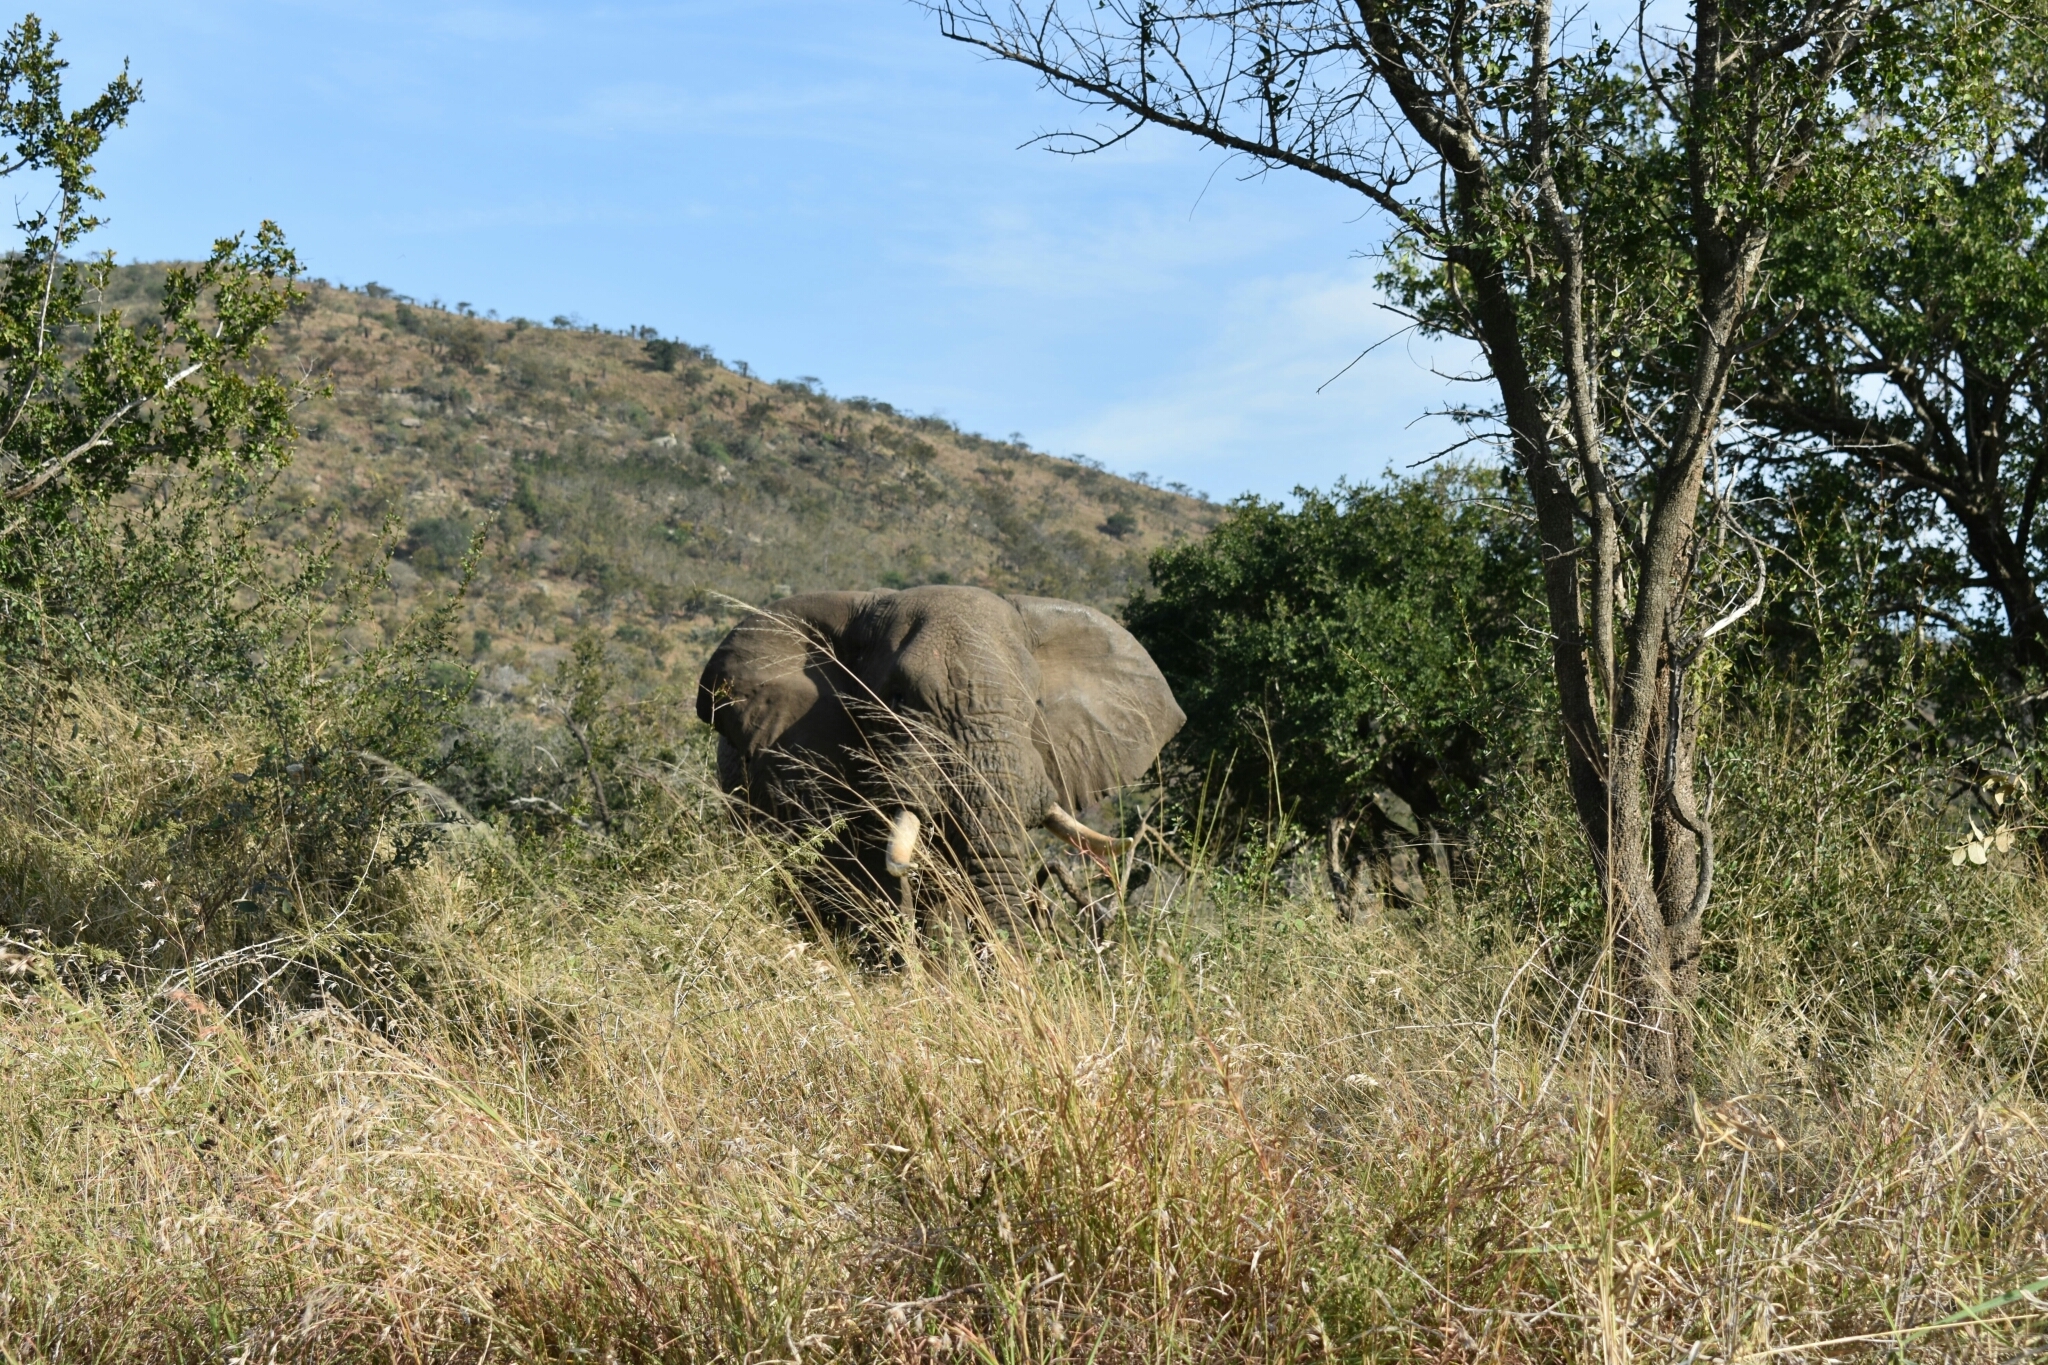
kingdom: Animalia
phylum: Chordata
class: Mammalia
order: Proboscidea
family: Elephantidae
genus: Loxodonta
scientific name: Loxodonta africana
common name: African elephant
